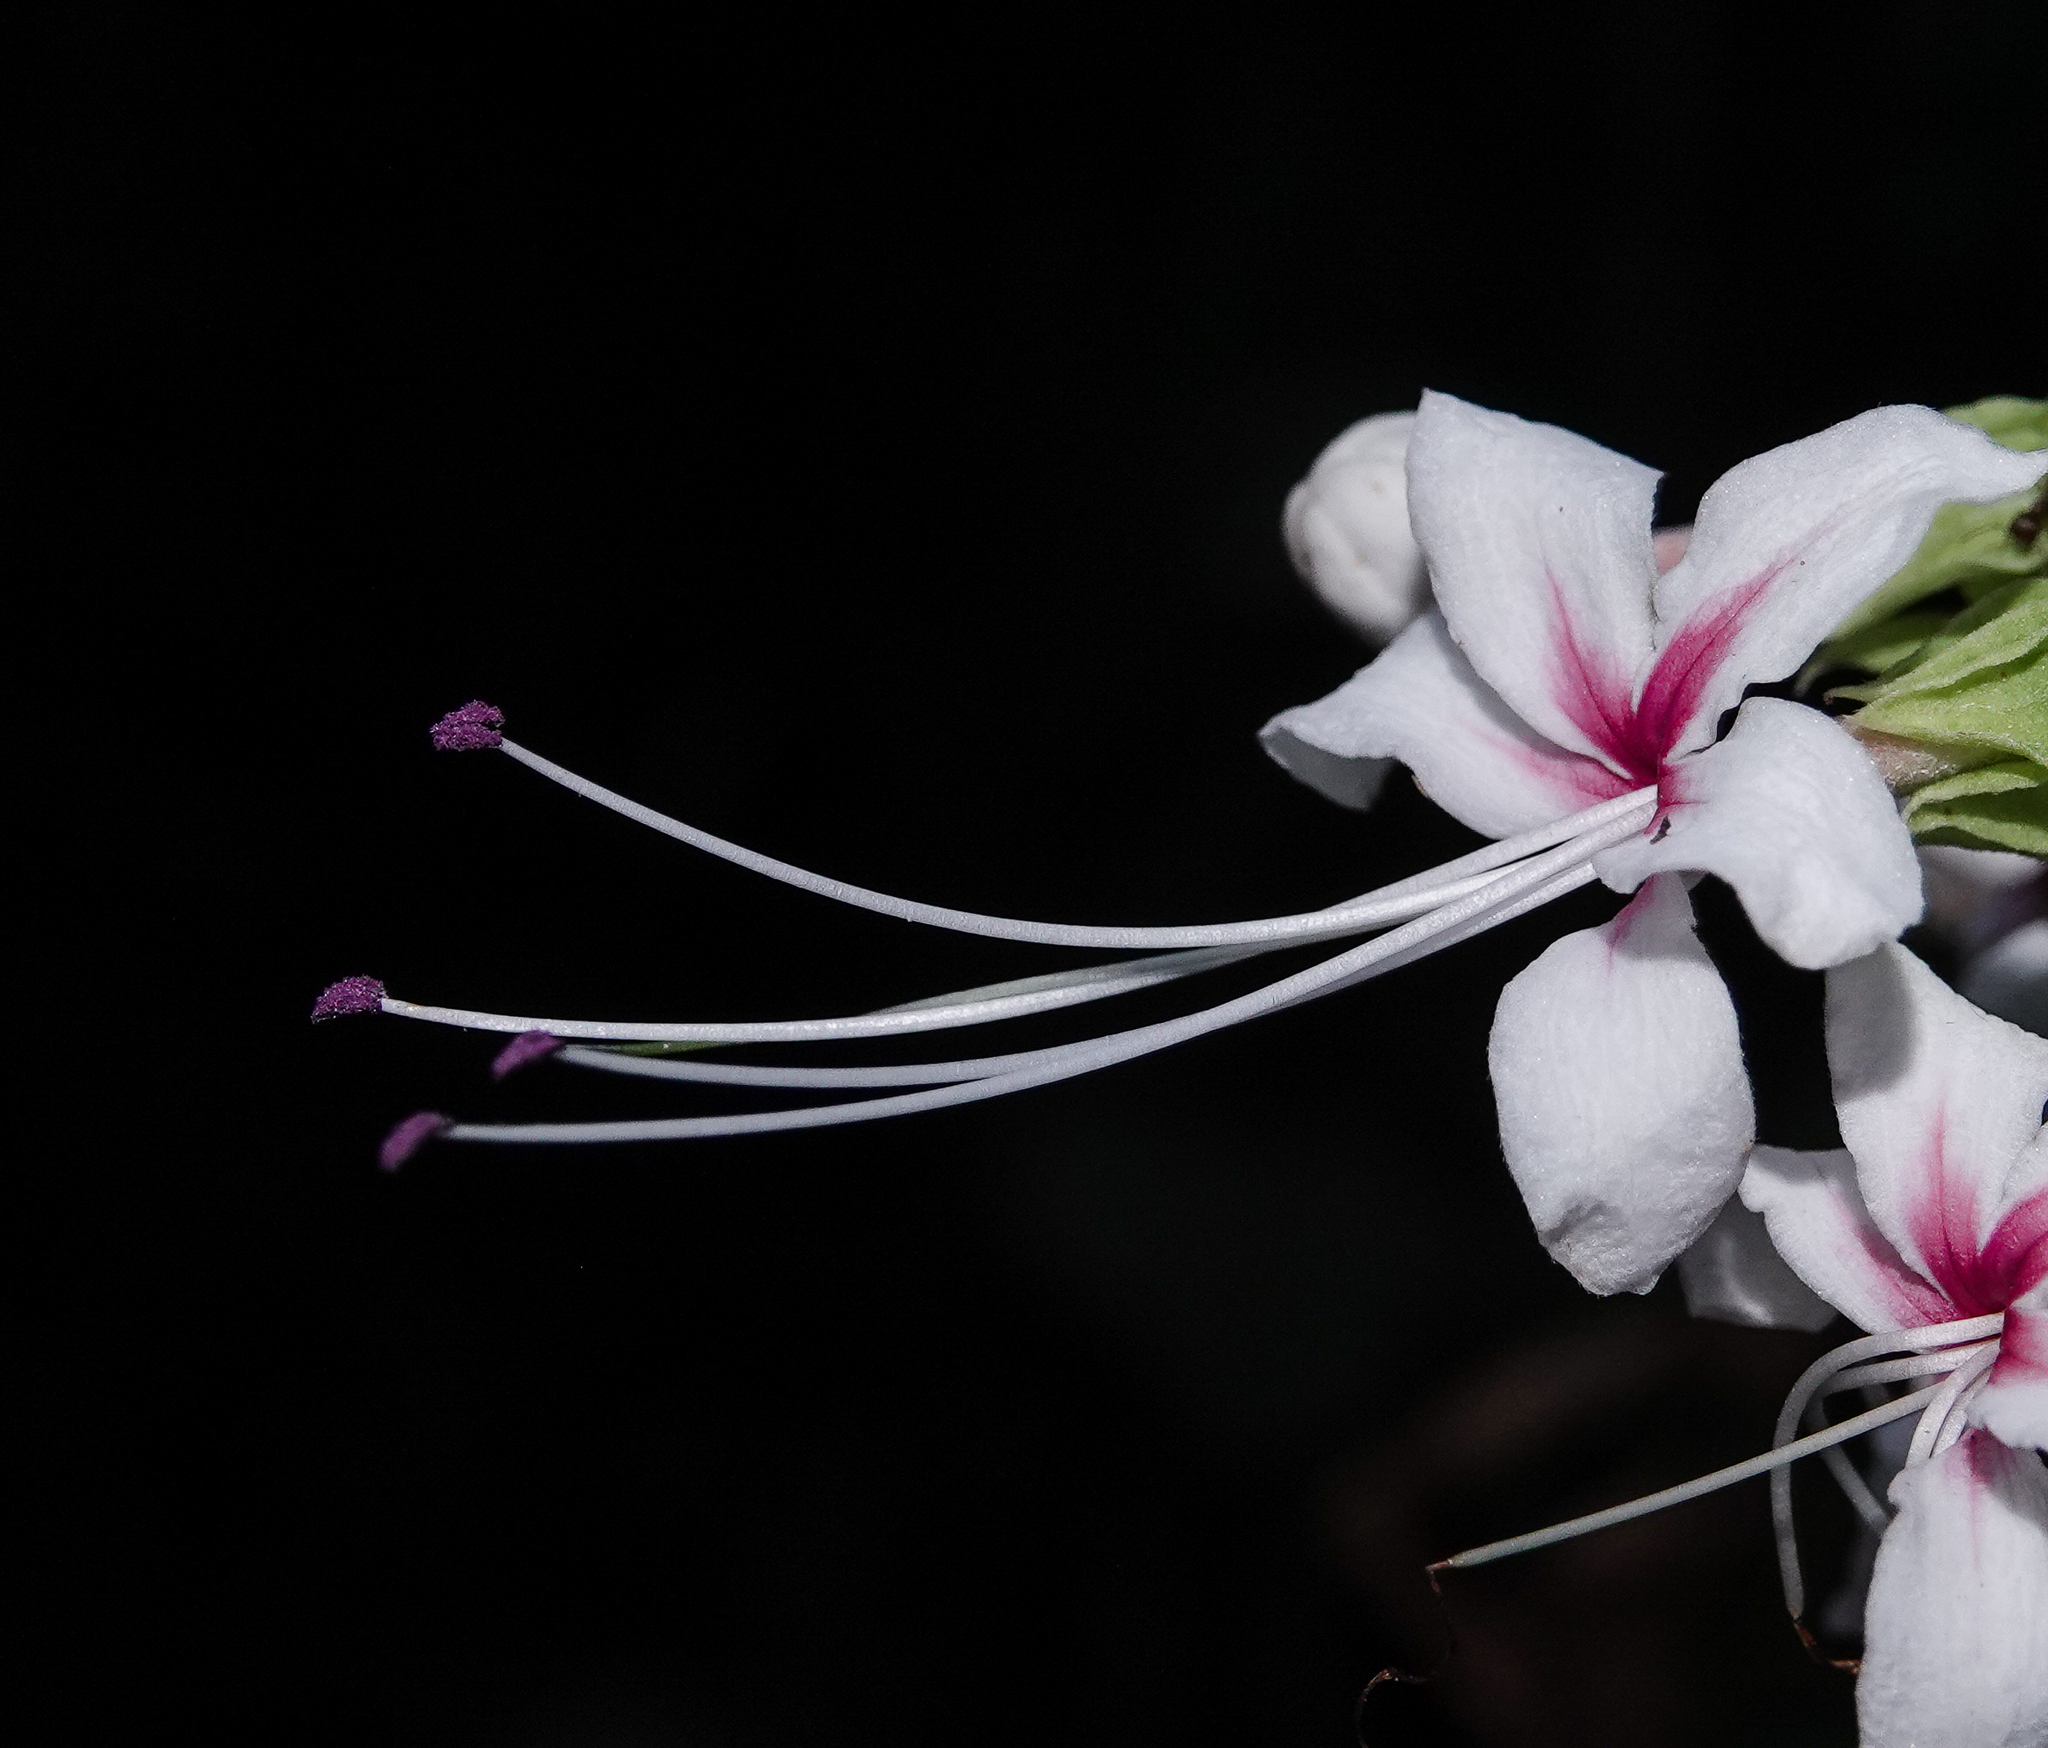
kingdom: Plantae
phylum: Tracheophyta
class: Magnoliopsida
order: Lamiales
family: Lamiaceae
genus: Clerodendrum
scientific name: Clerodendrum infortunatum
